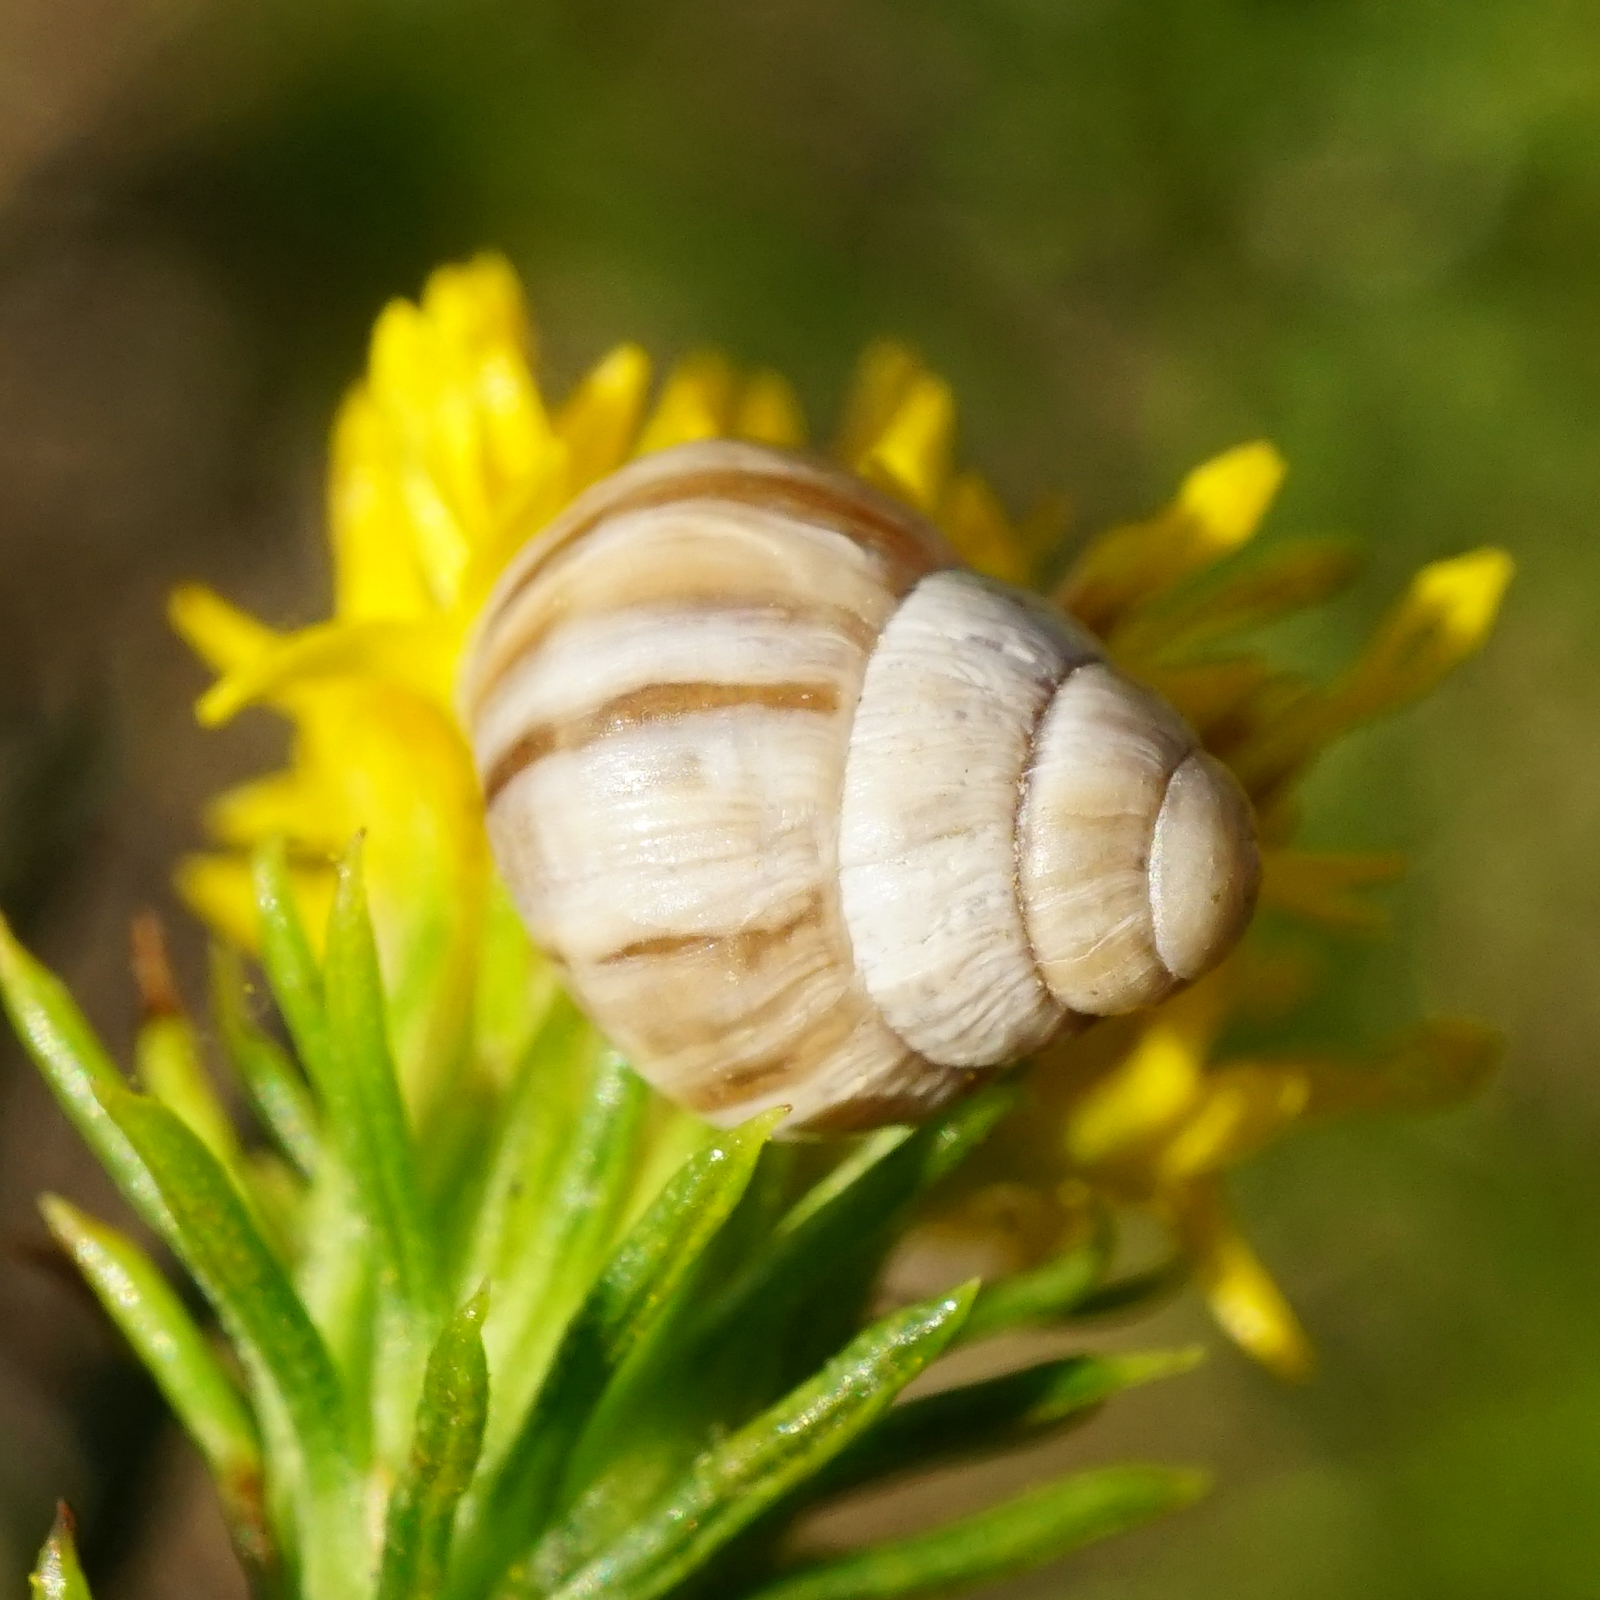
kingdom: Animalia
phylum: Mollusca
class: Gastropoda
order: Stylommatophora
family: Enidae
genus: Zebrina
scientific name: Zebrina detrita
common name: Large bulin
